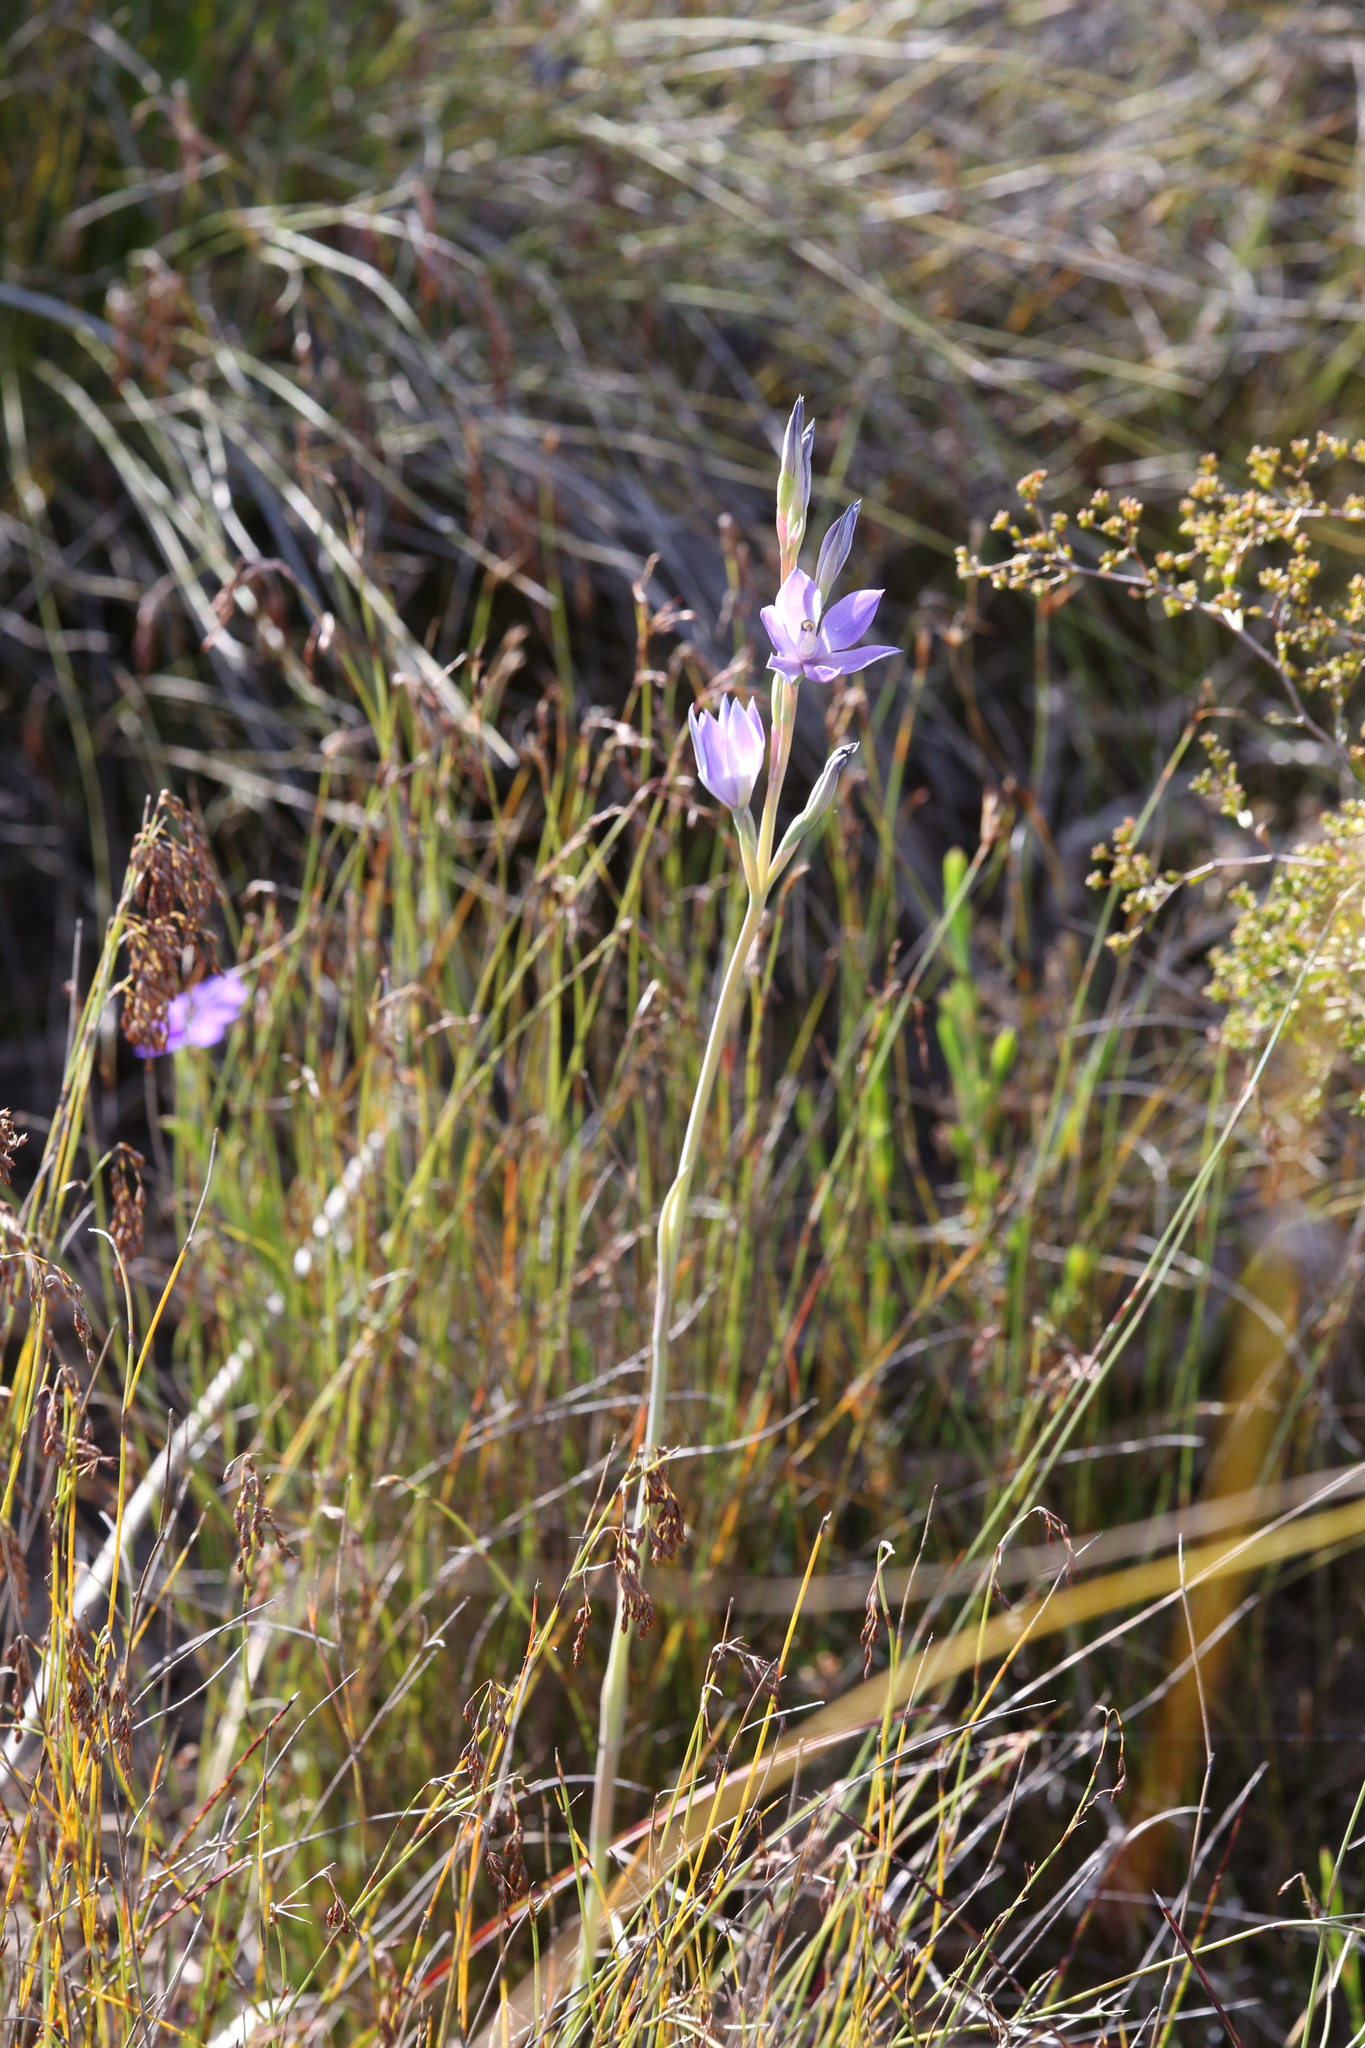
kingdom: Plantae
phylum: Tracheophyta
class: Liliopsida
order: Asparagales
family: Orchidaceae
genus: Thelymitra
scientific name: Thelymitra macrophylla
